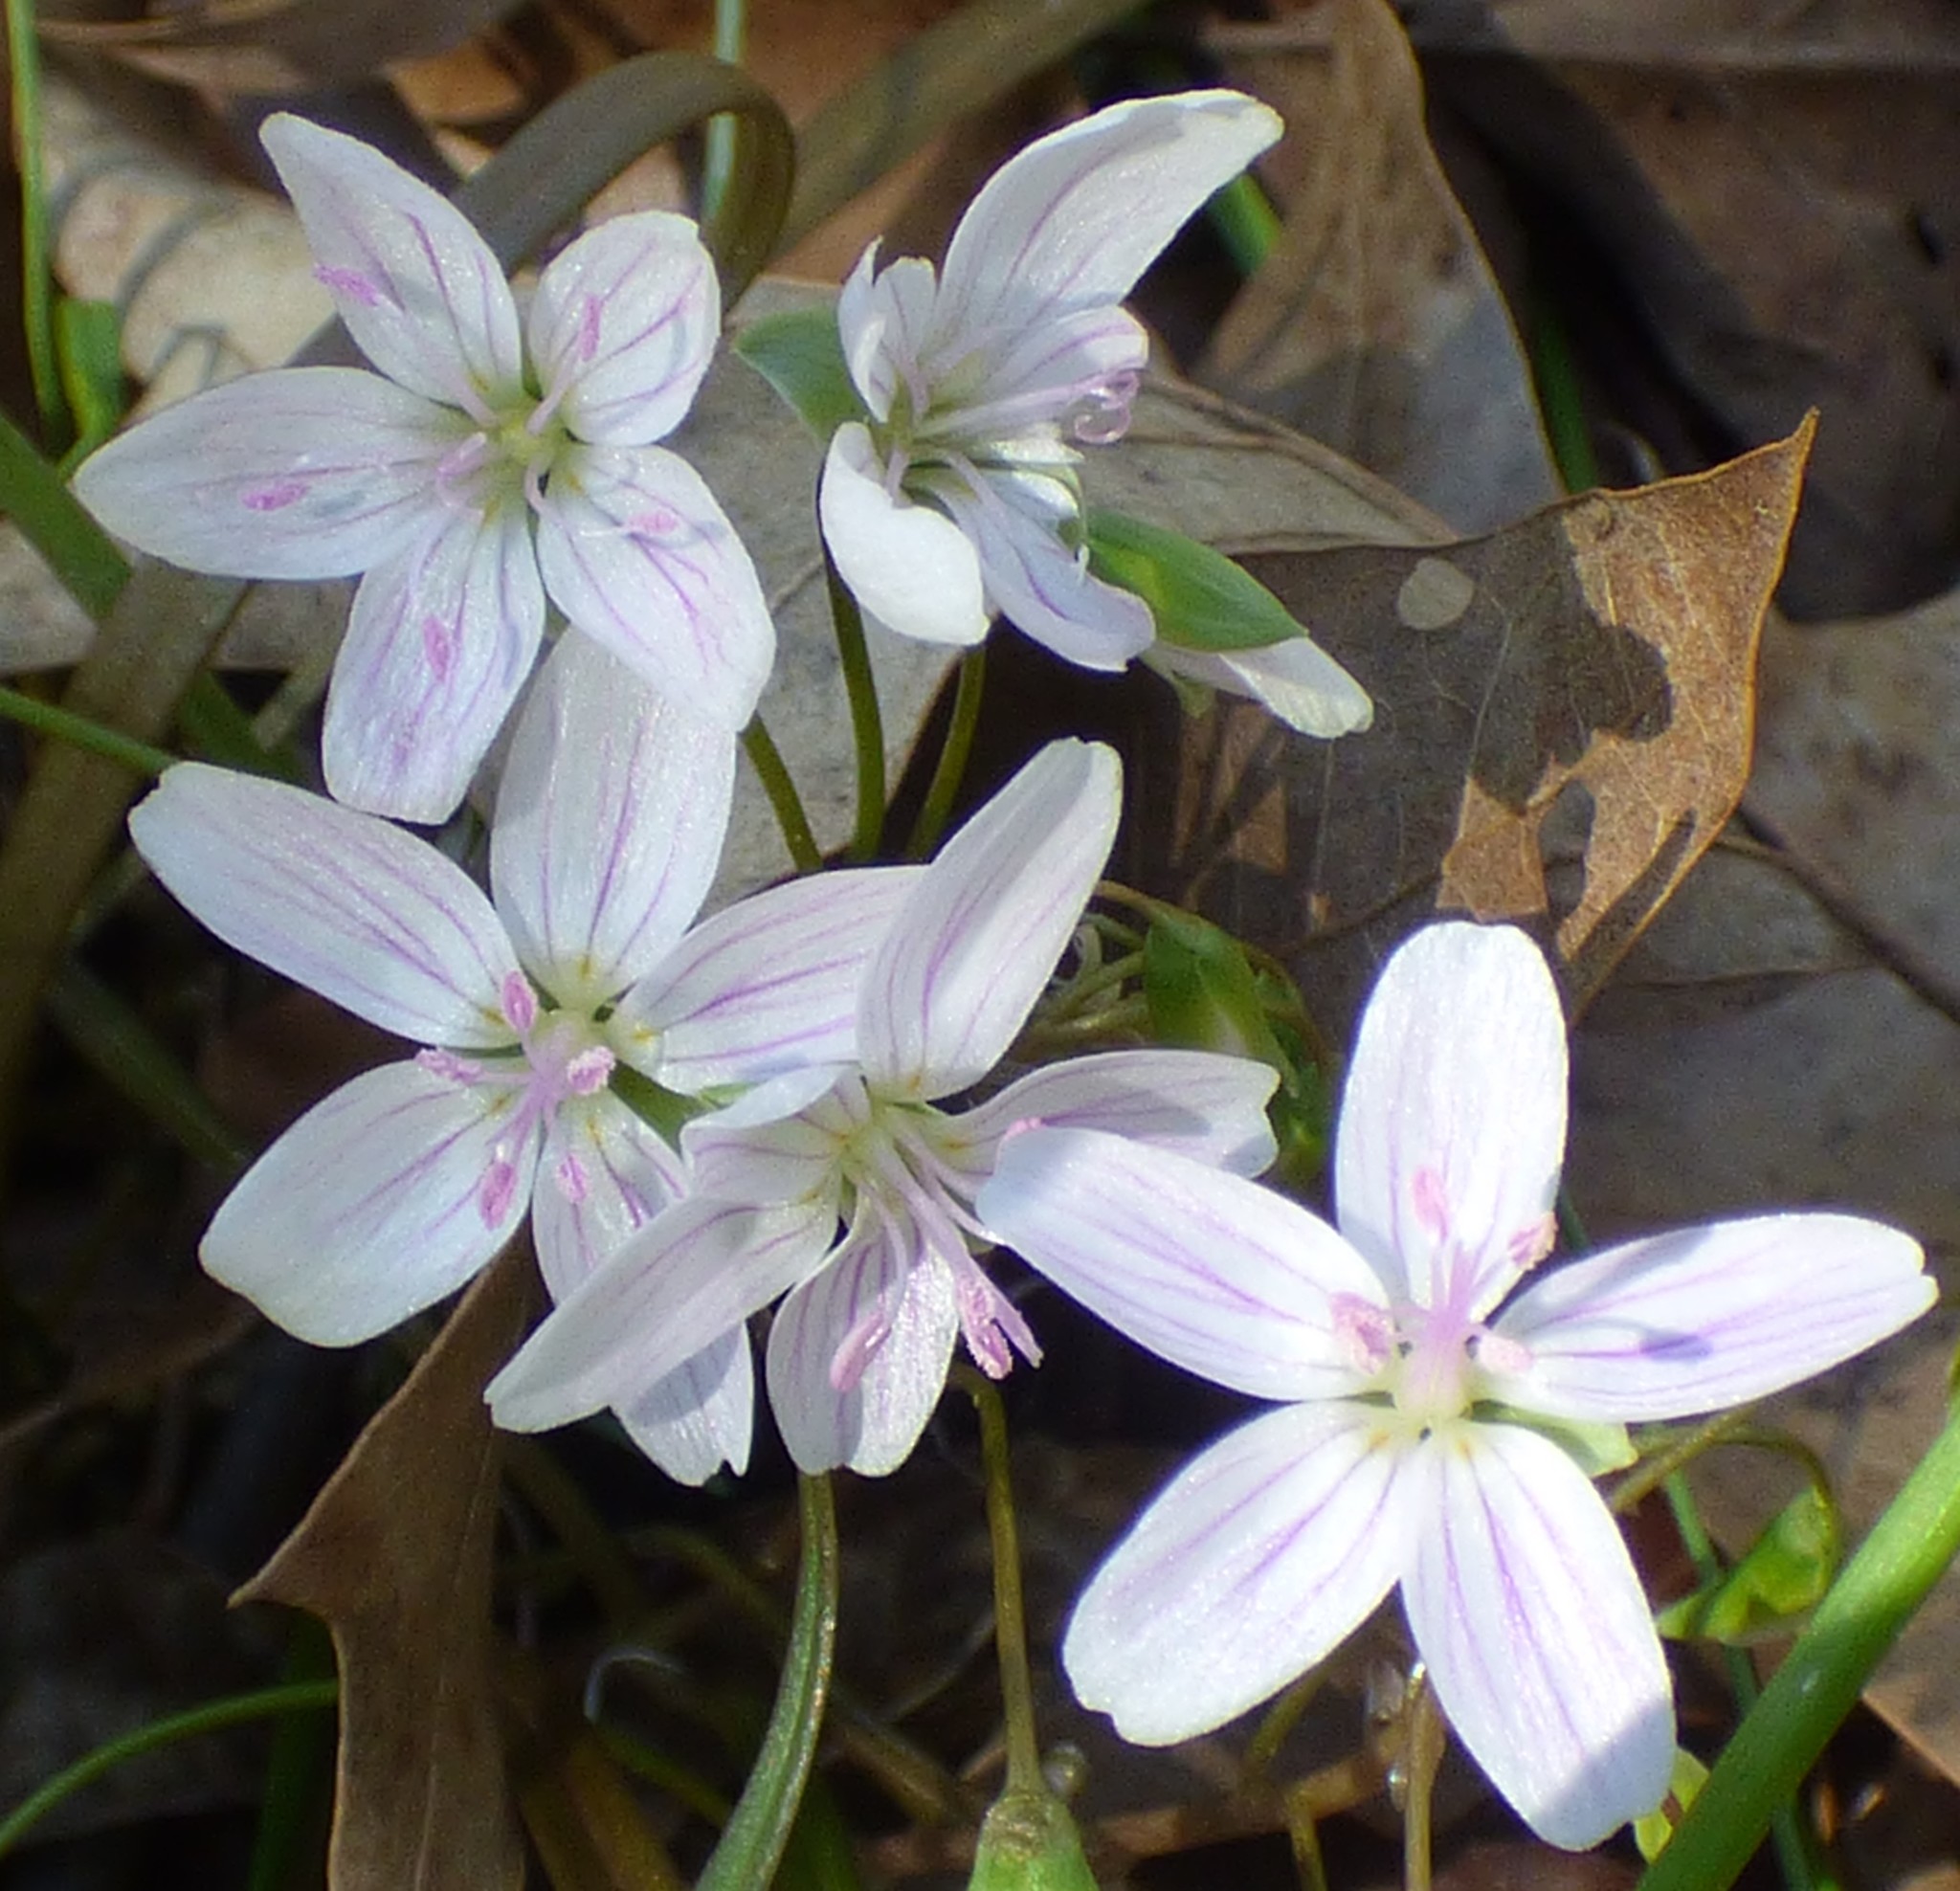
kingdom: Plantae
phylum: Tracheophyta
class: Magnoliopsida
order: Caryophyllales
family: Montiaceae
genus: Claytonia
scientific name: Claytonia virginica
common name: Virginia springbeauty
